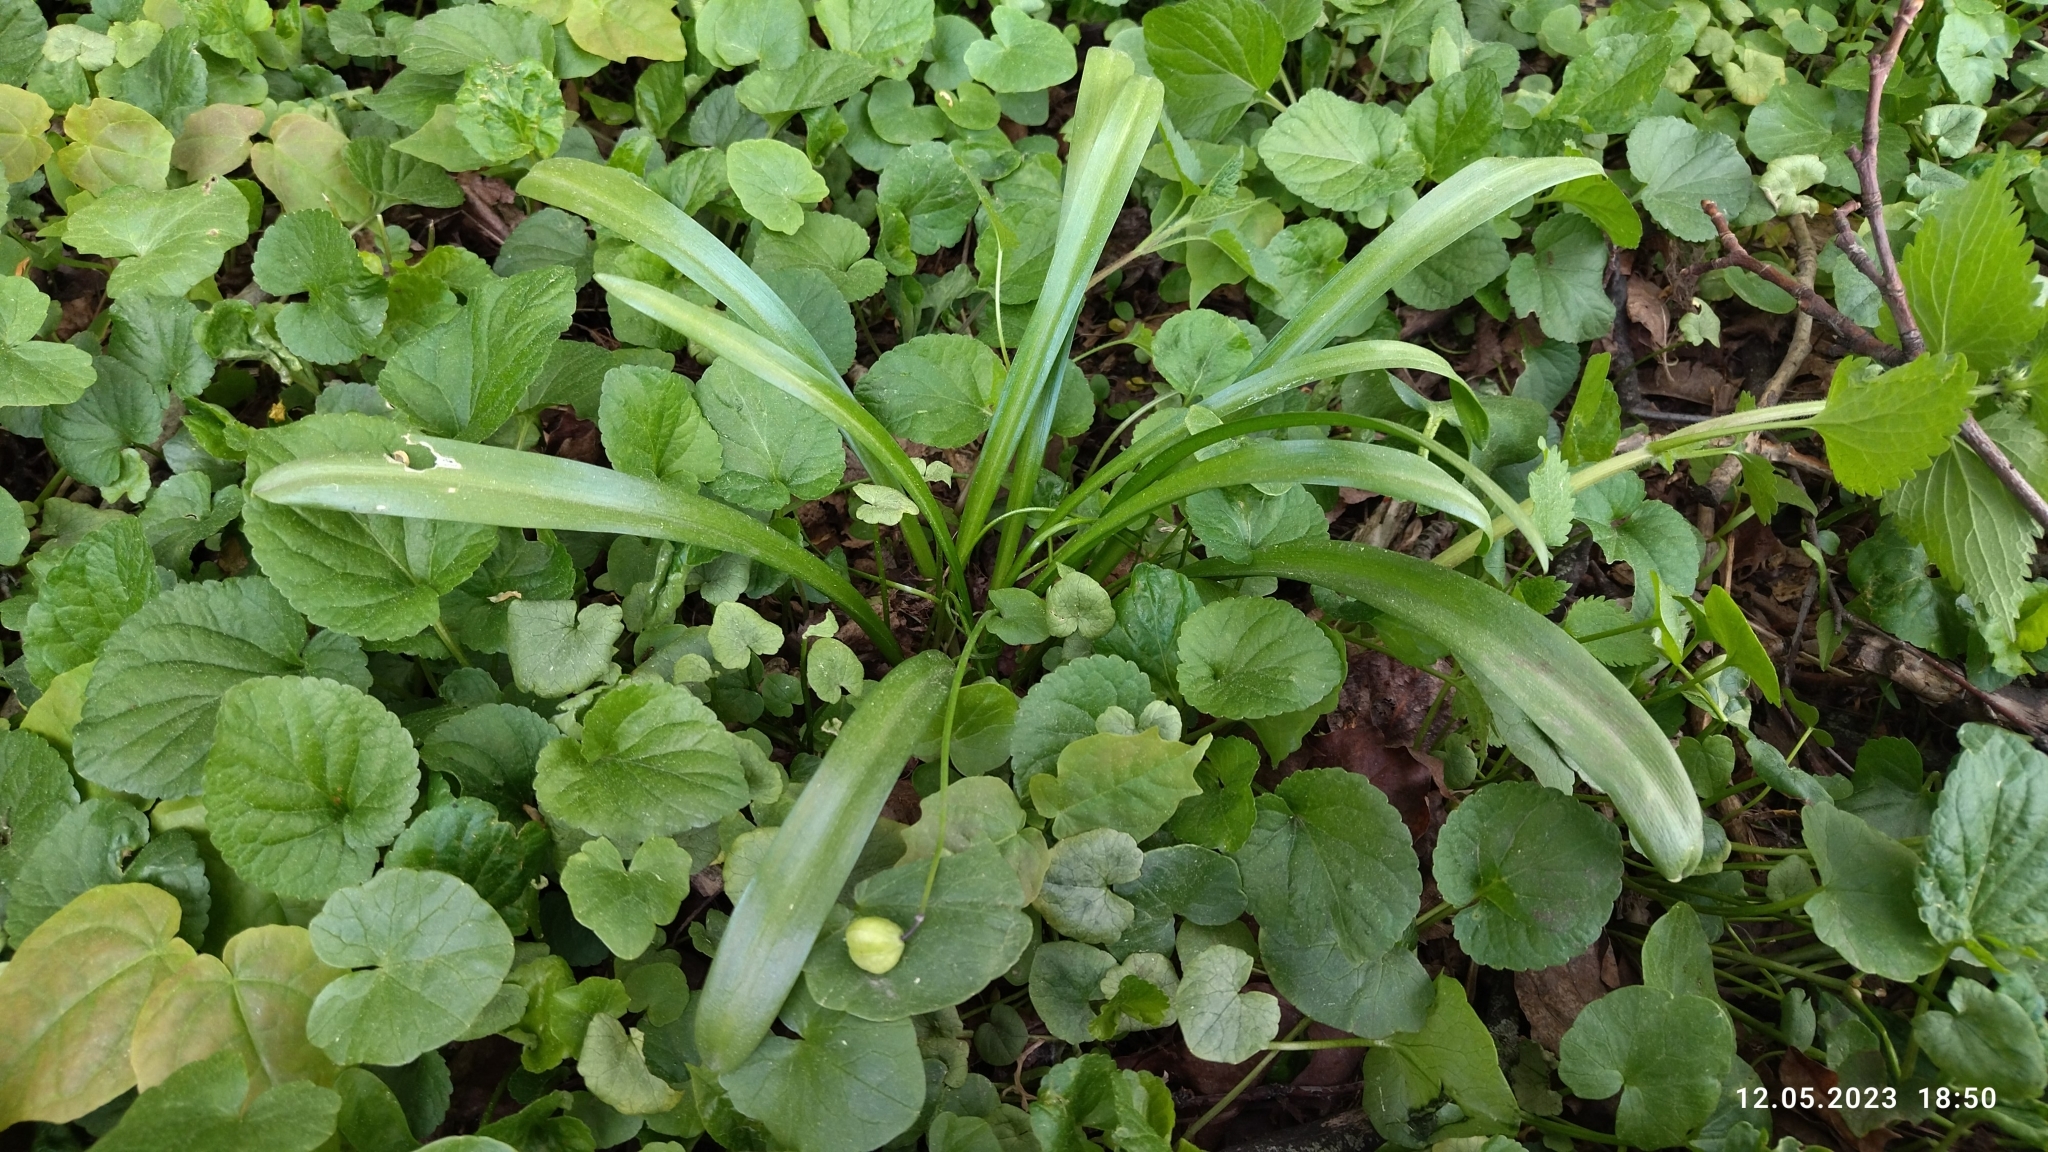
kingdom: Plantae
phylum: Tracheophyta
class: Liliopsida
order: Asparagales
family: Asparagaceae
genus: Scilla
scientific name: Scilla siberica
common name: Siberian squill
